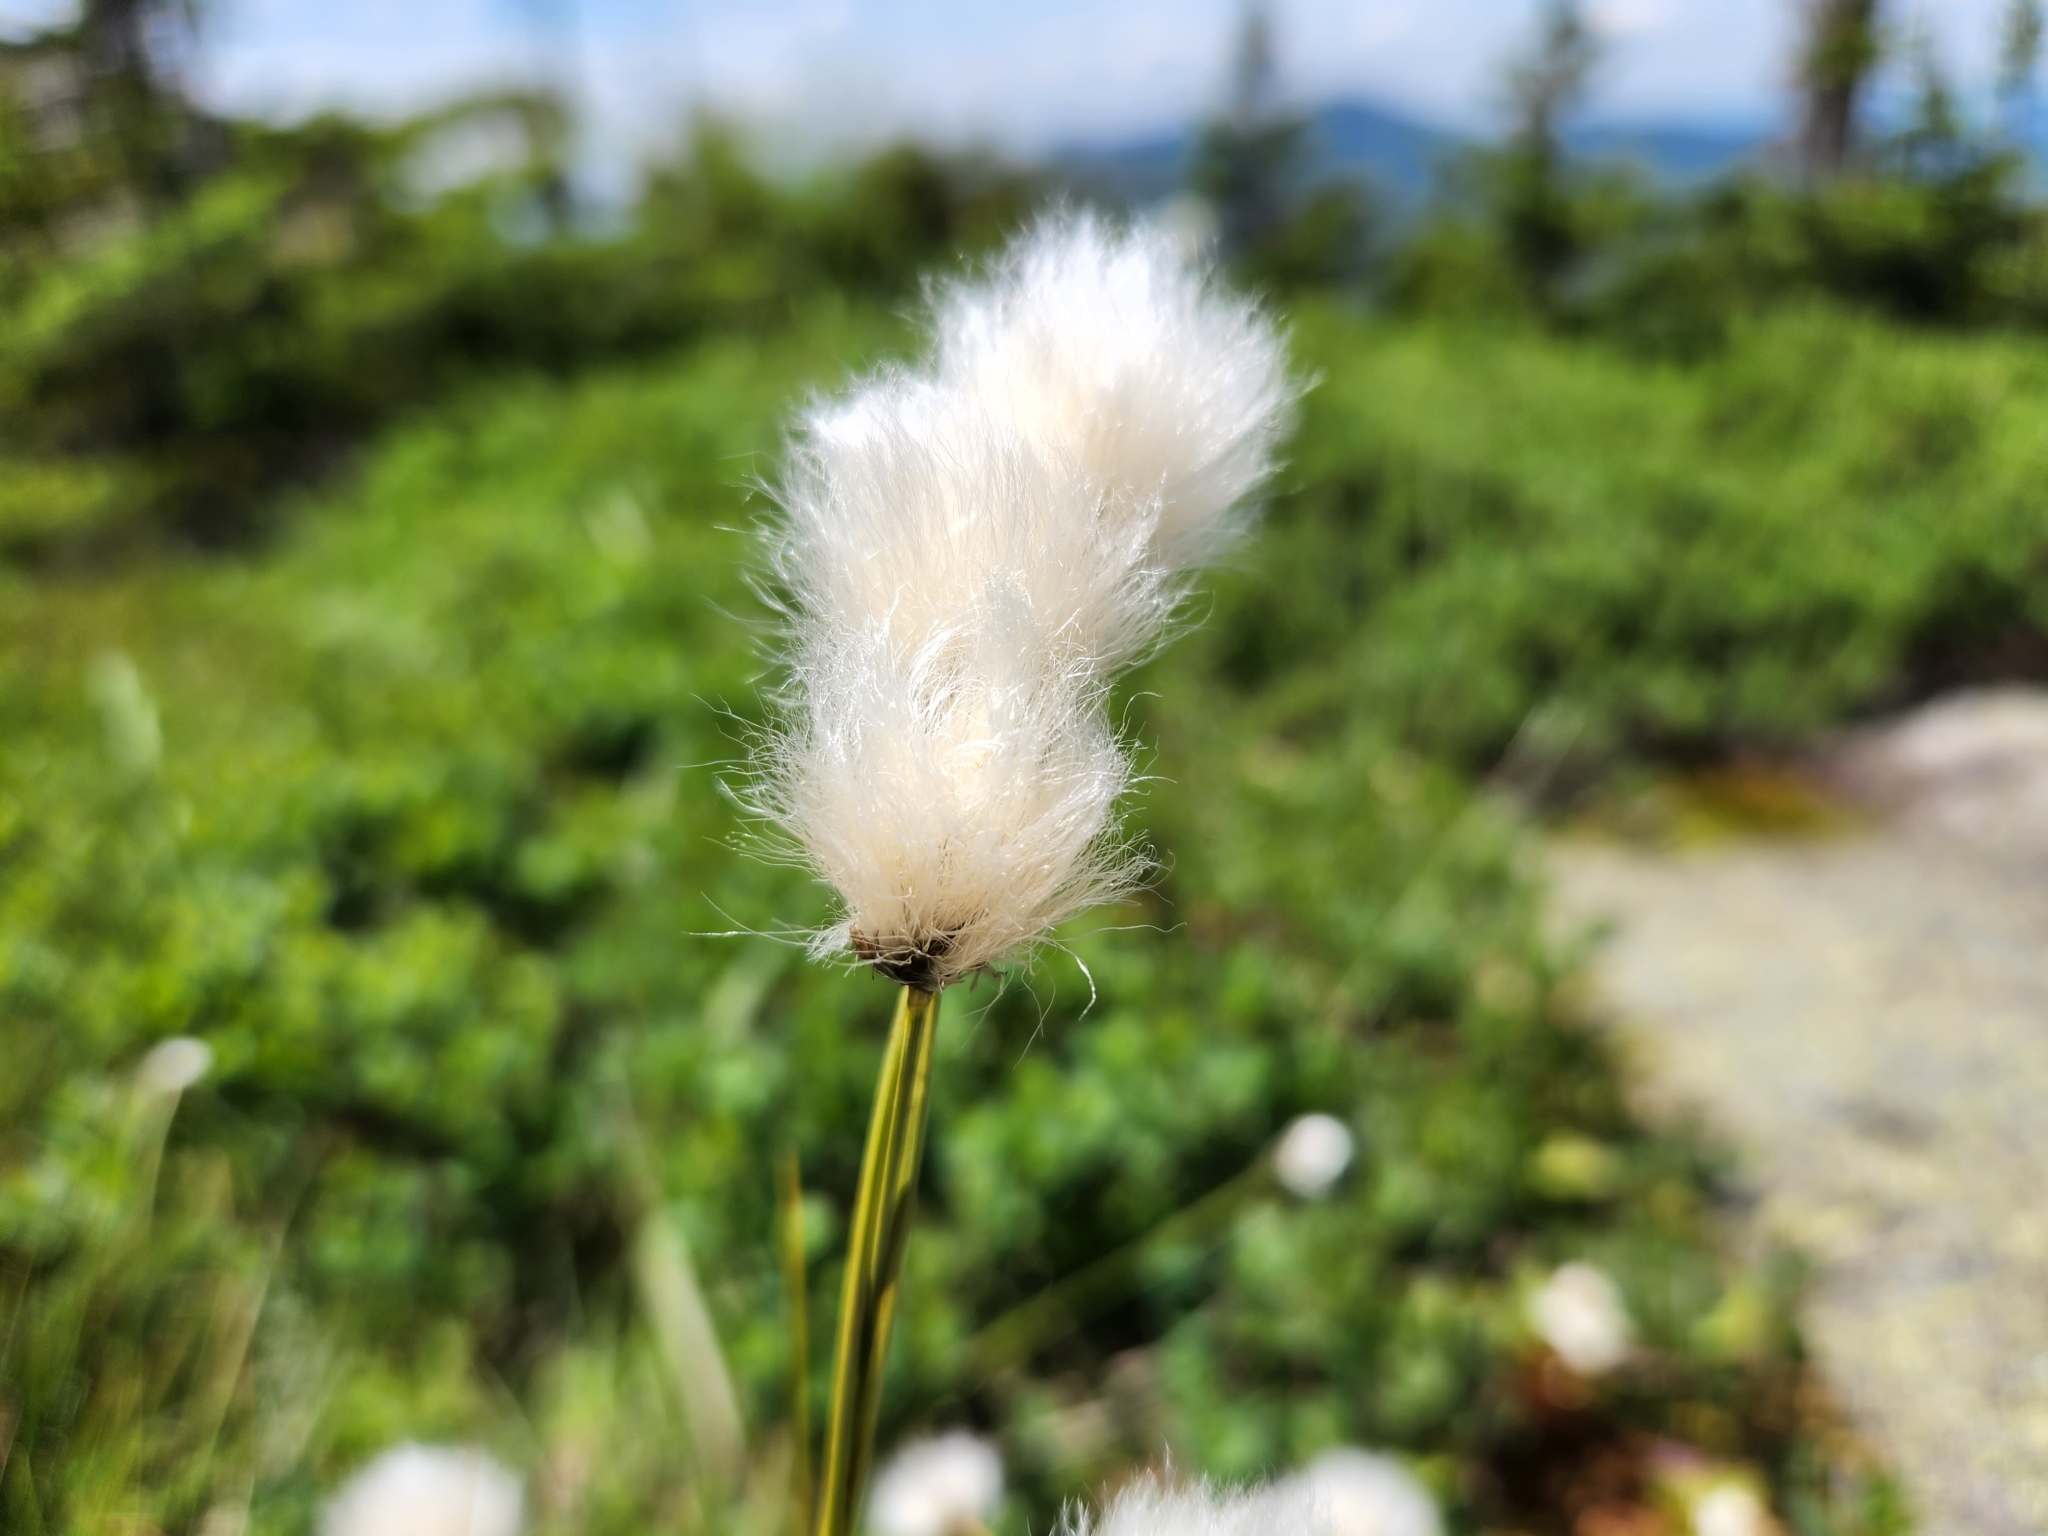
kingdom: Plantae
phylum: Tracheophyta
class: Liliopsida
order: Poales
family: Cyperaceae
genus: Eriophorum
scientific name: Eriophorum vaginatum
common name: Hare's-tail cottongrass
